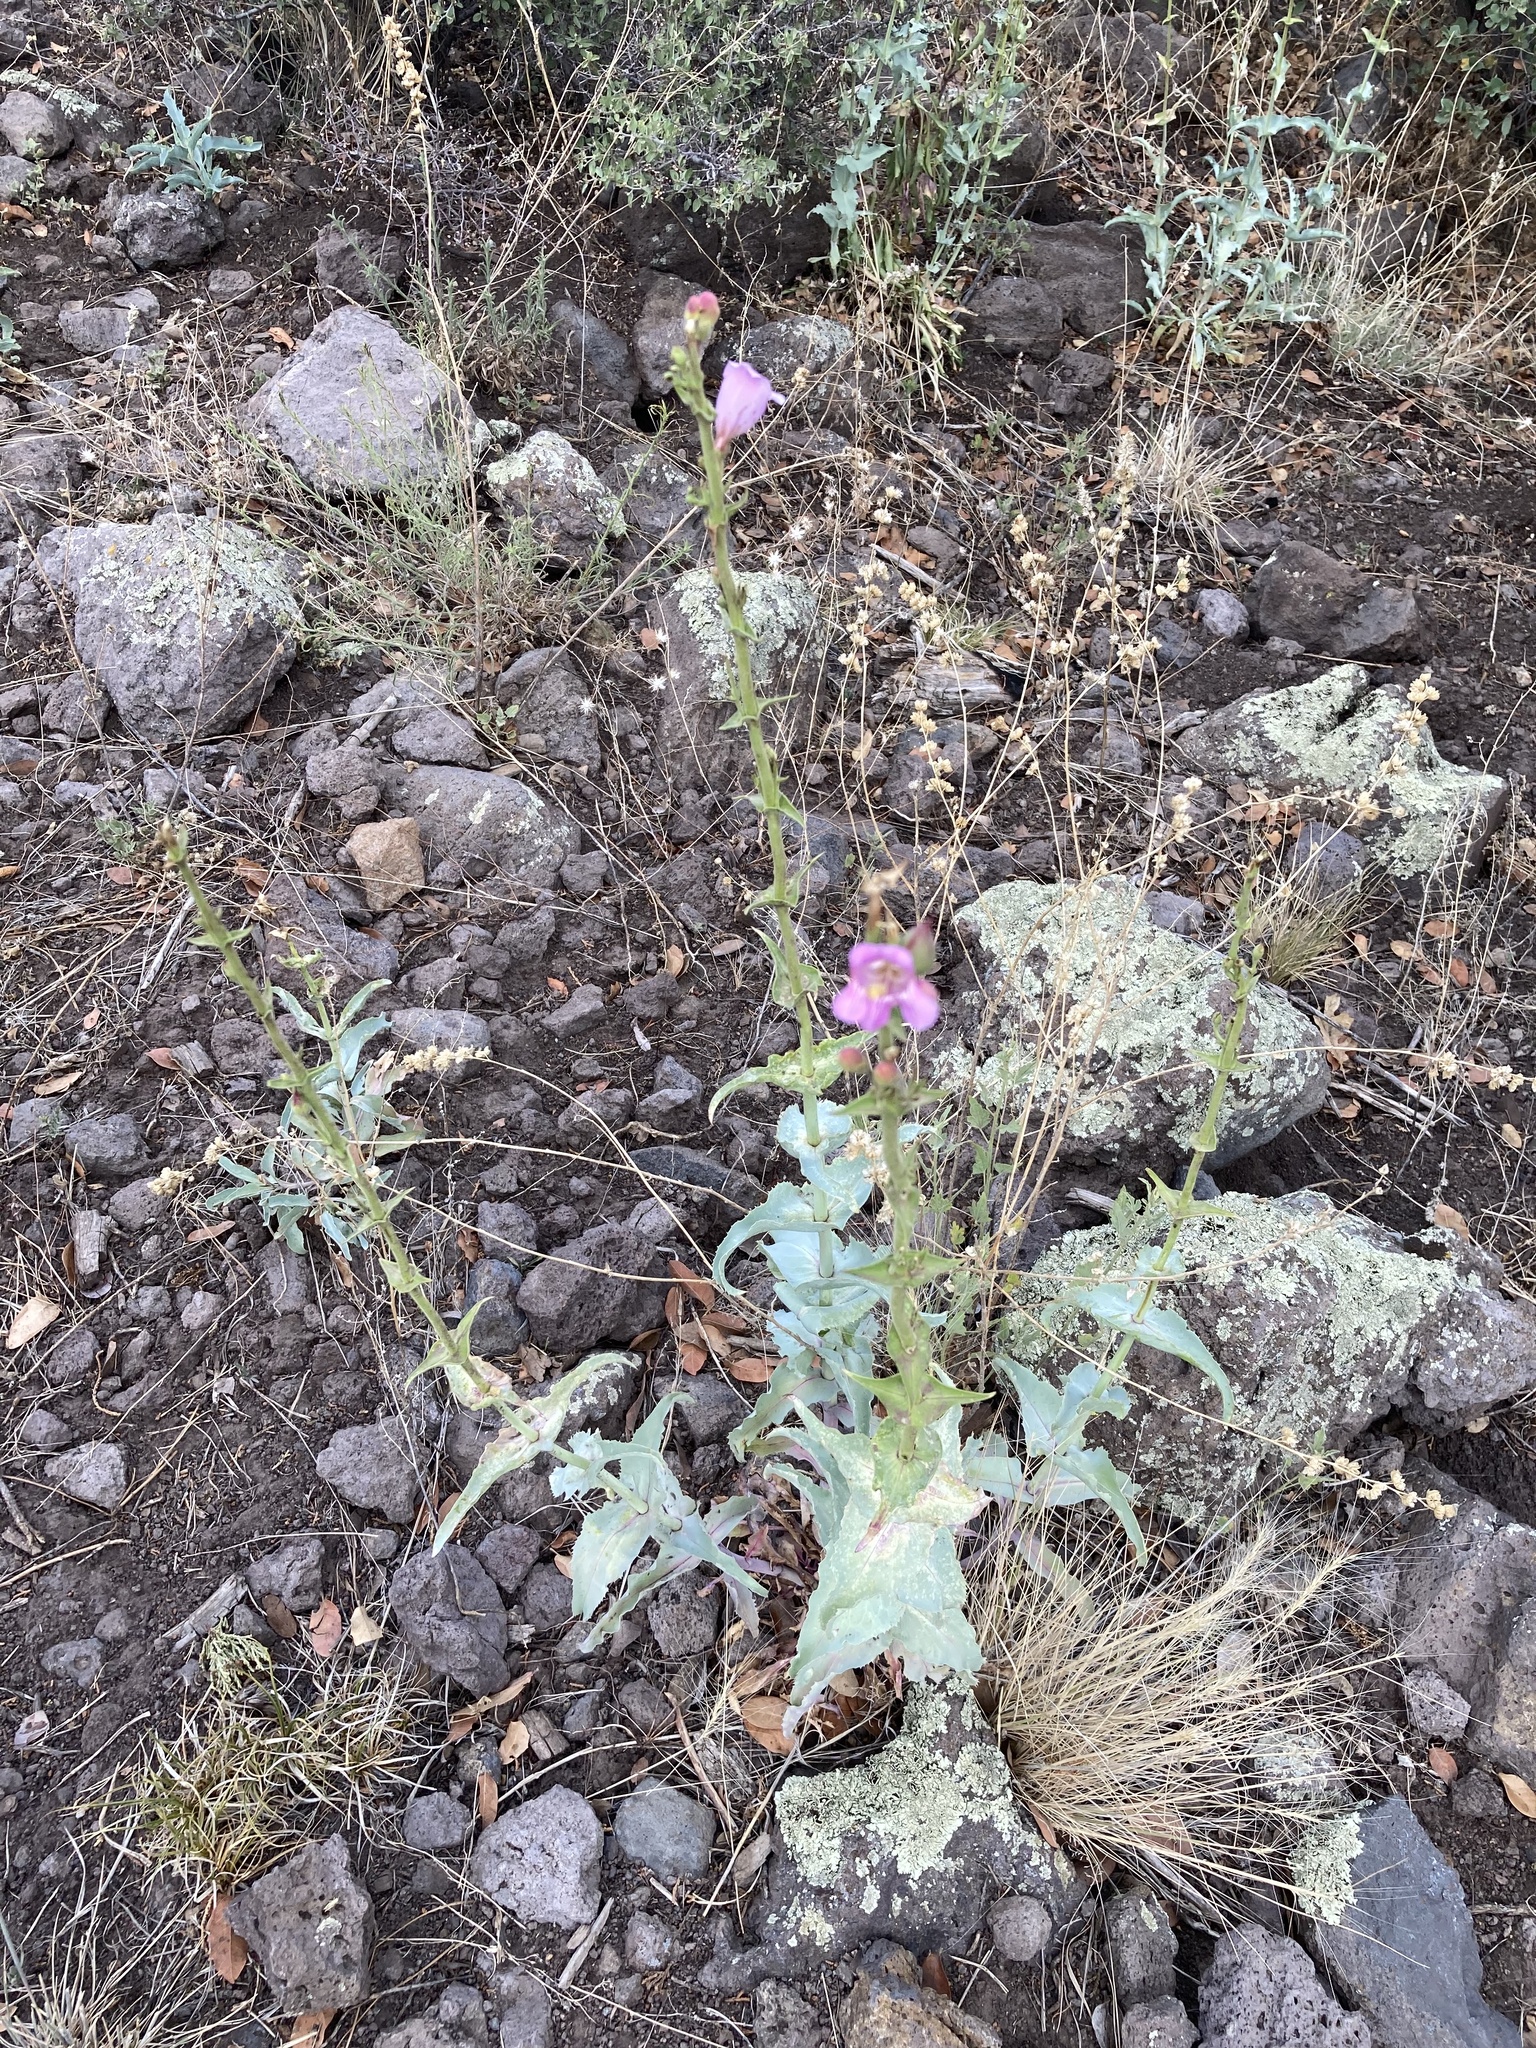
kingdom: Plantae
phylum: Tracheophyta
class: Magnoliopsida
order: Lamiales
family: Plantaginaceae
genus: Penstemon
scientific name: Penstemon palmeri
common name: Palmer penstemon
